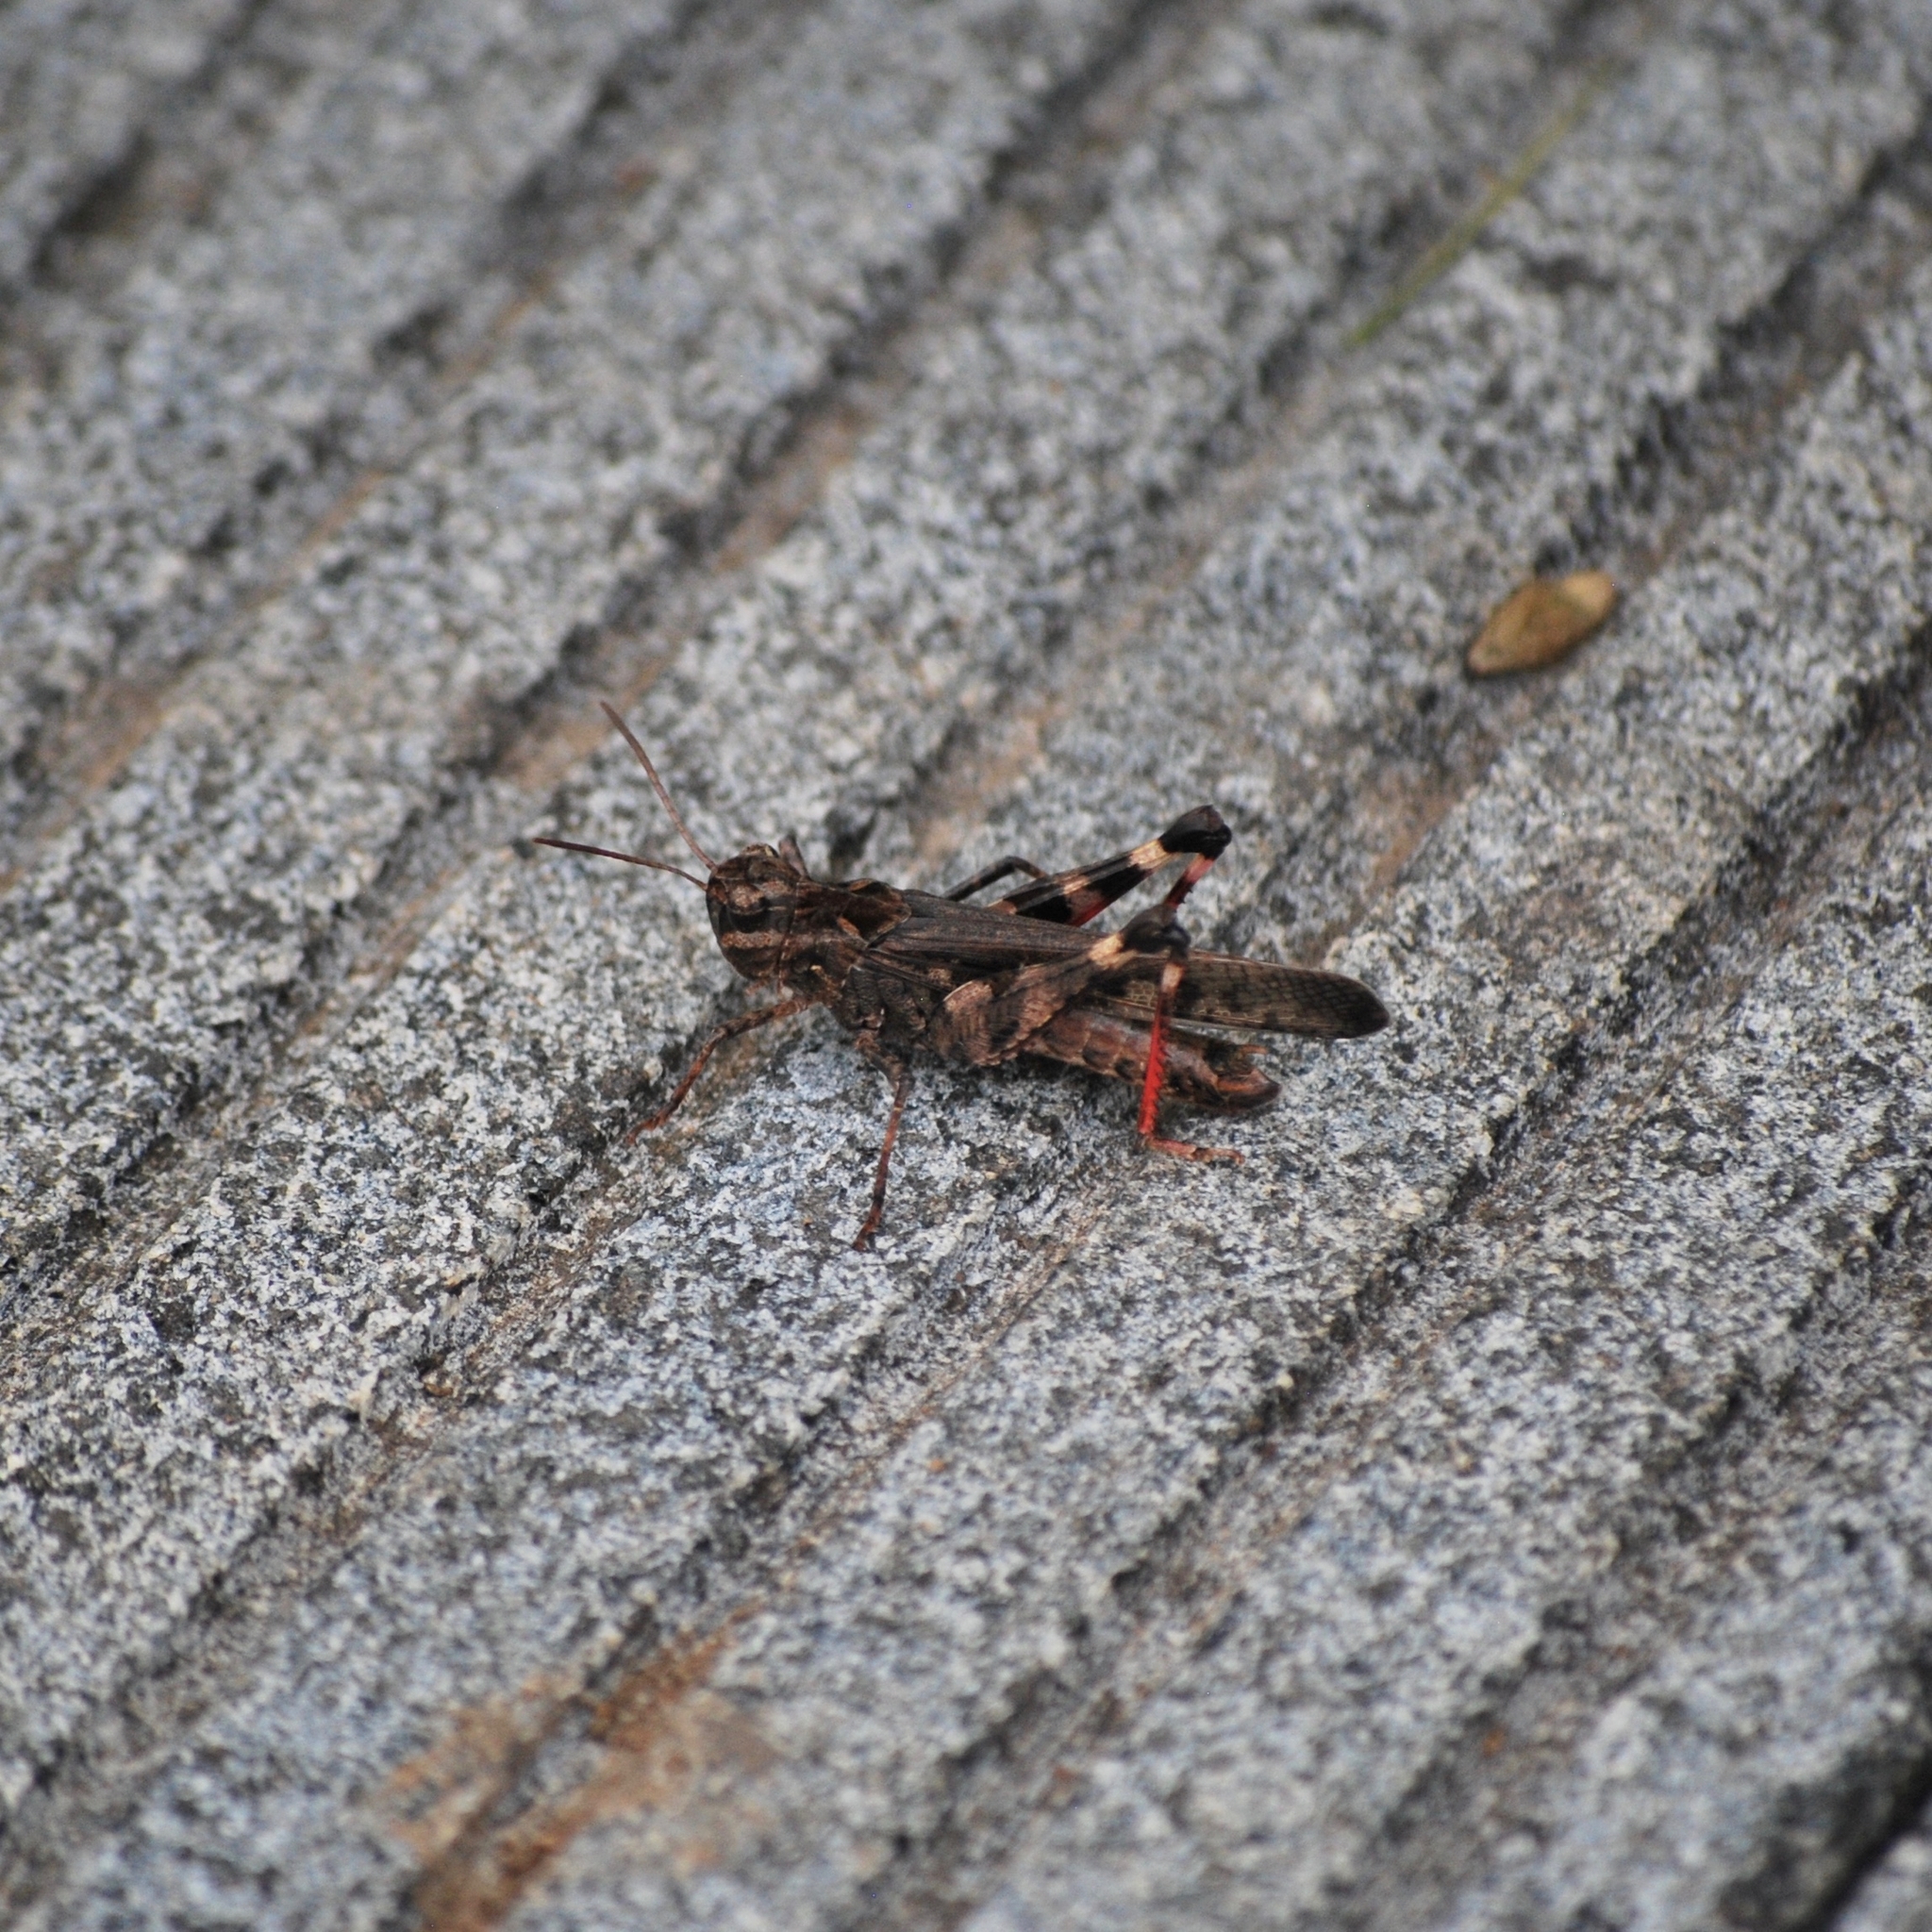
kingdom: Animalia
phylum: Arthropoda
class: Insecta
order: Orthoptera
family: Acrididae
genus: Oedaleus
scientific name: Oedaleus infernalis
